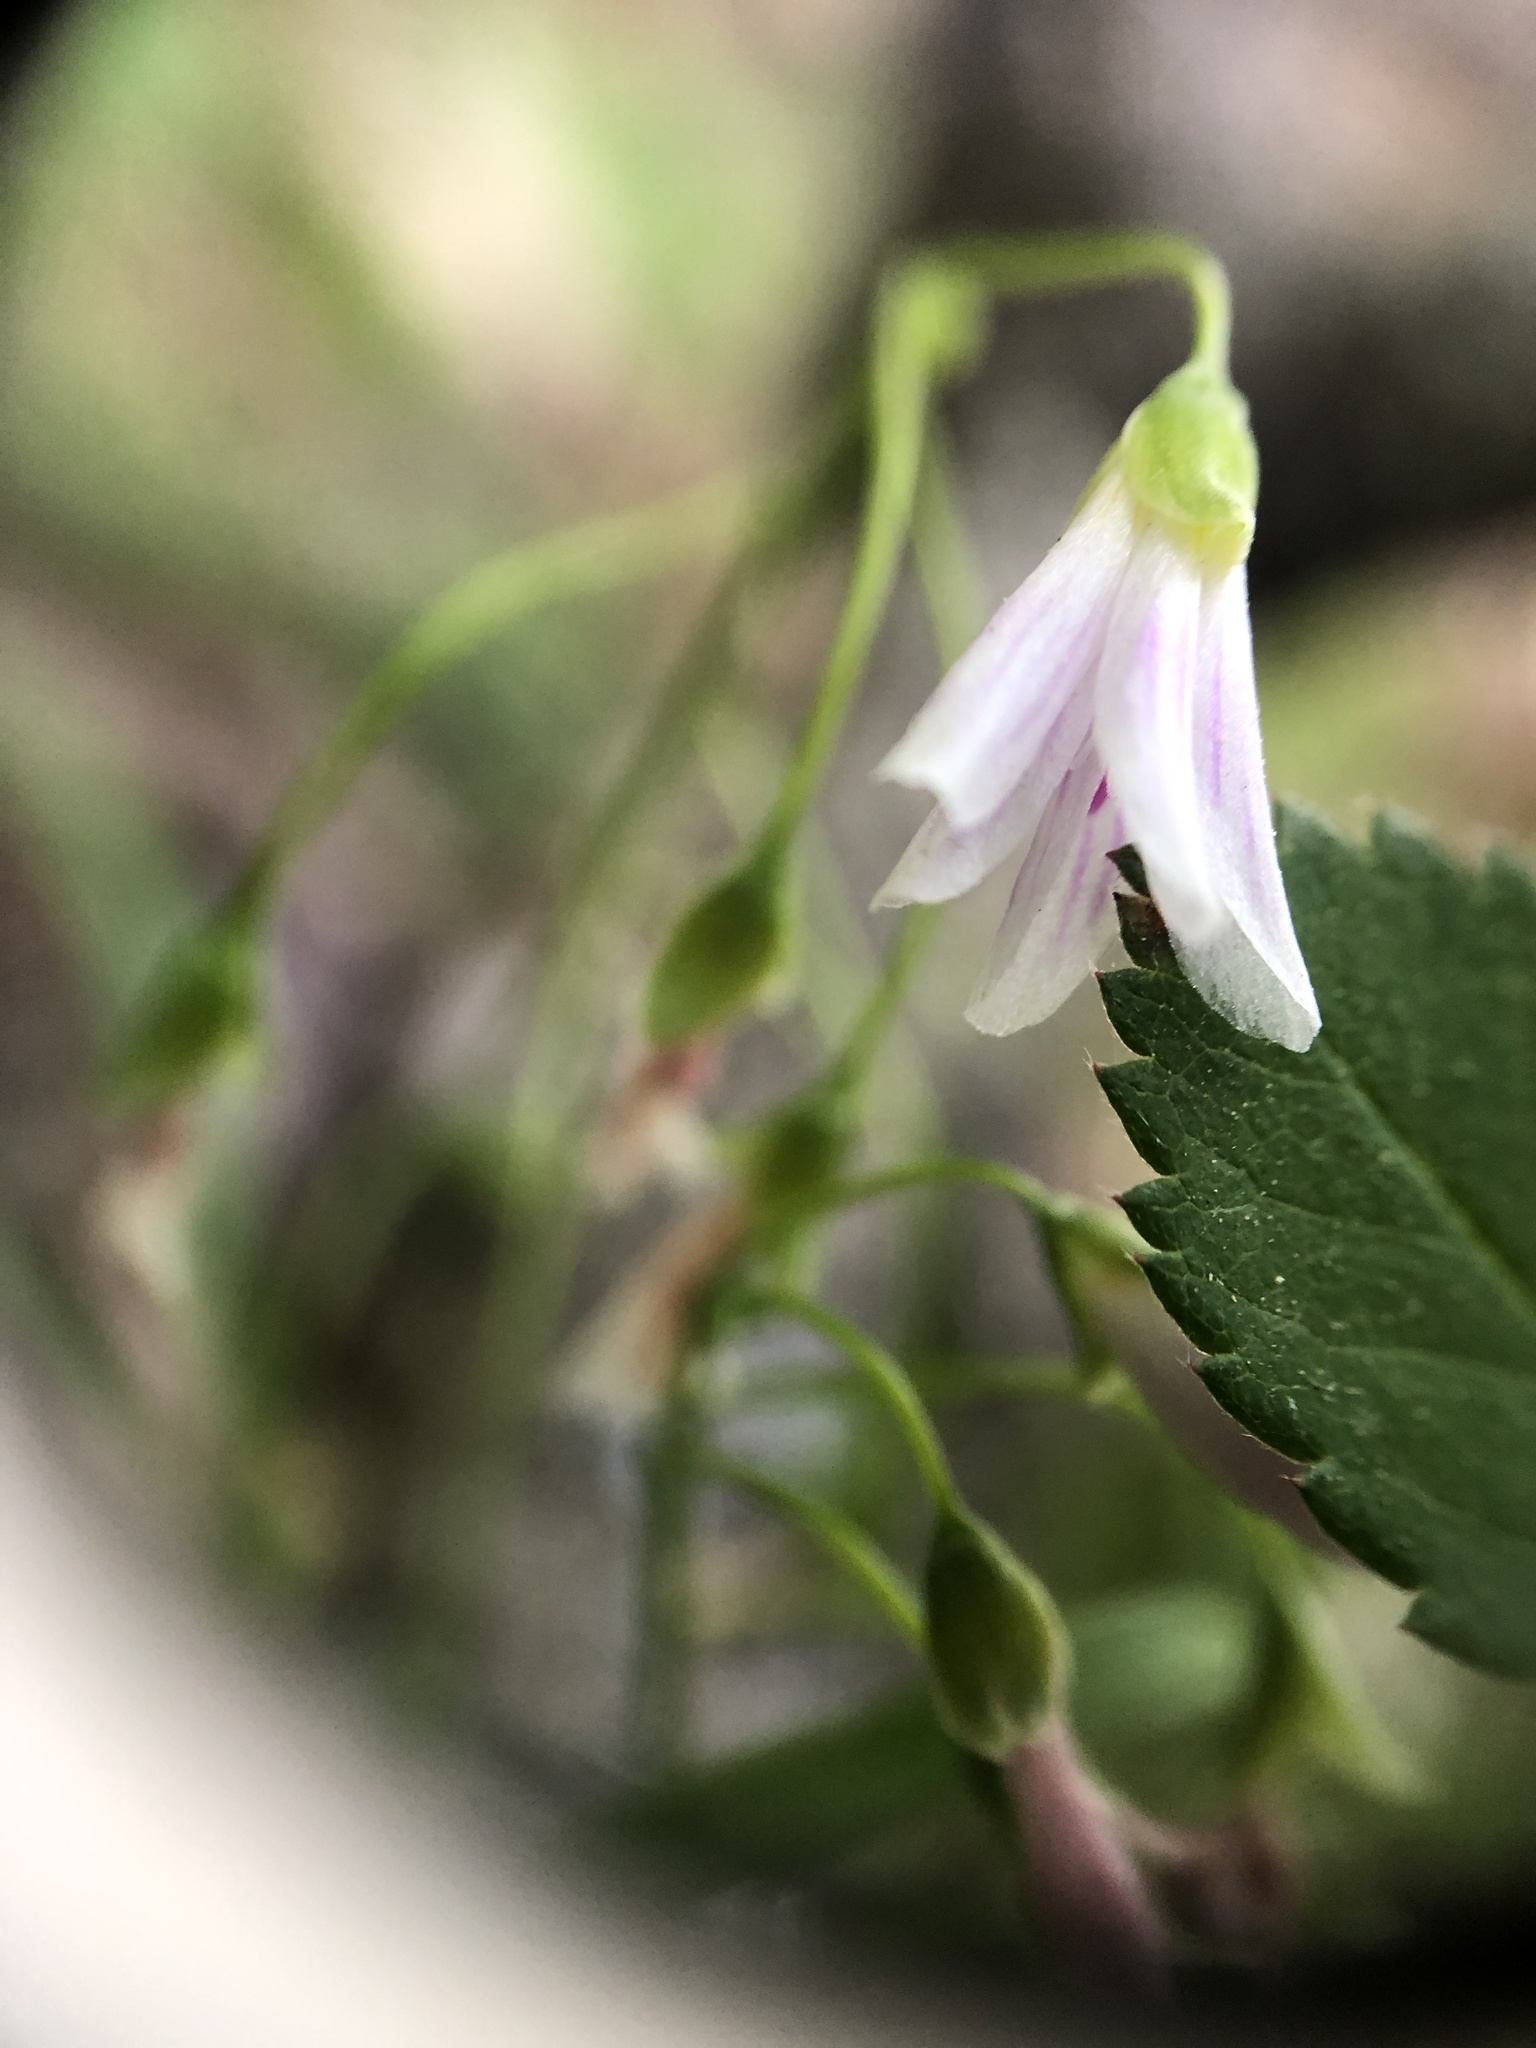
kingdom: Plantae
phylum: Tracheophyta
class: Magnoliopsida
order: Caryophyllales
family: Montiaceae
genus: Claytonia
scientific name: Claytonia virginica
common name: Virginia springbeauty
